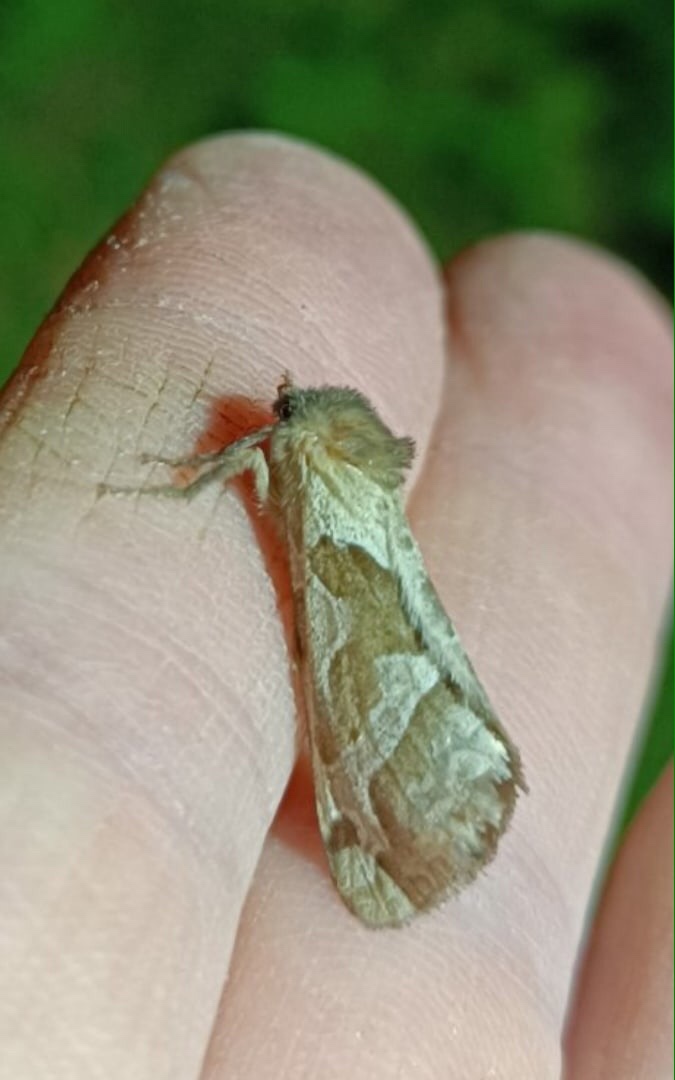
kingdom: Animalia
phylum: Arthropoda
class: Insecta
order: Lepidoptera
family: Hepialidae
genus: Triodia
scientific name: Triodia sylvina
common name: Orange swift
